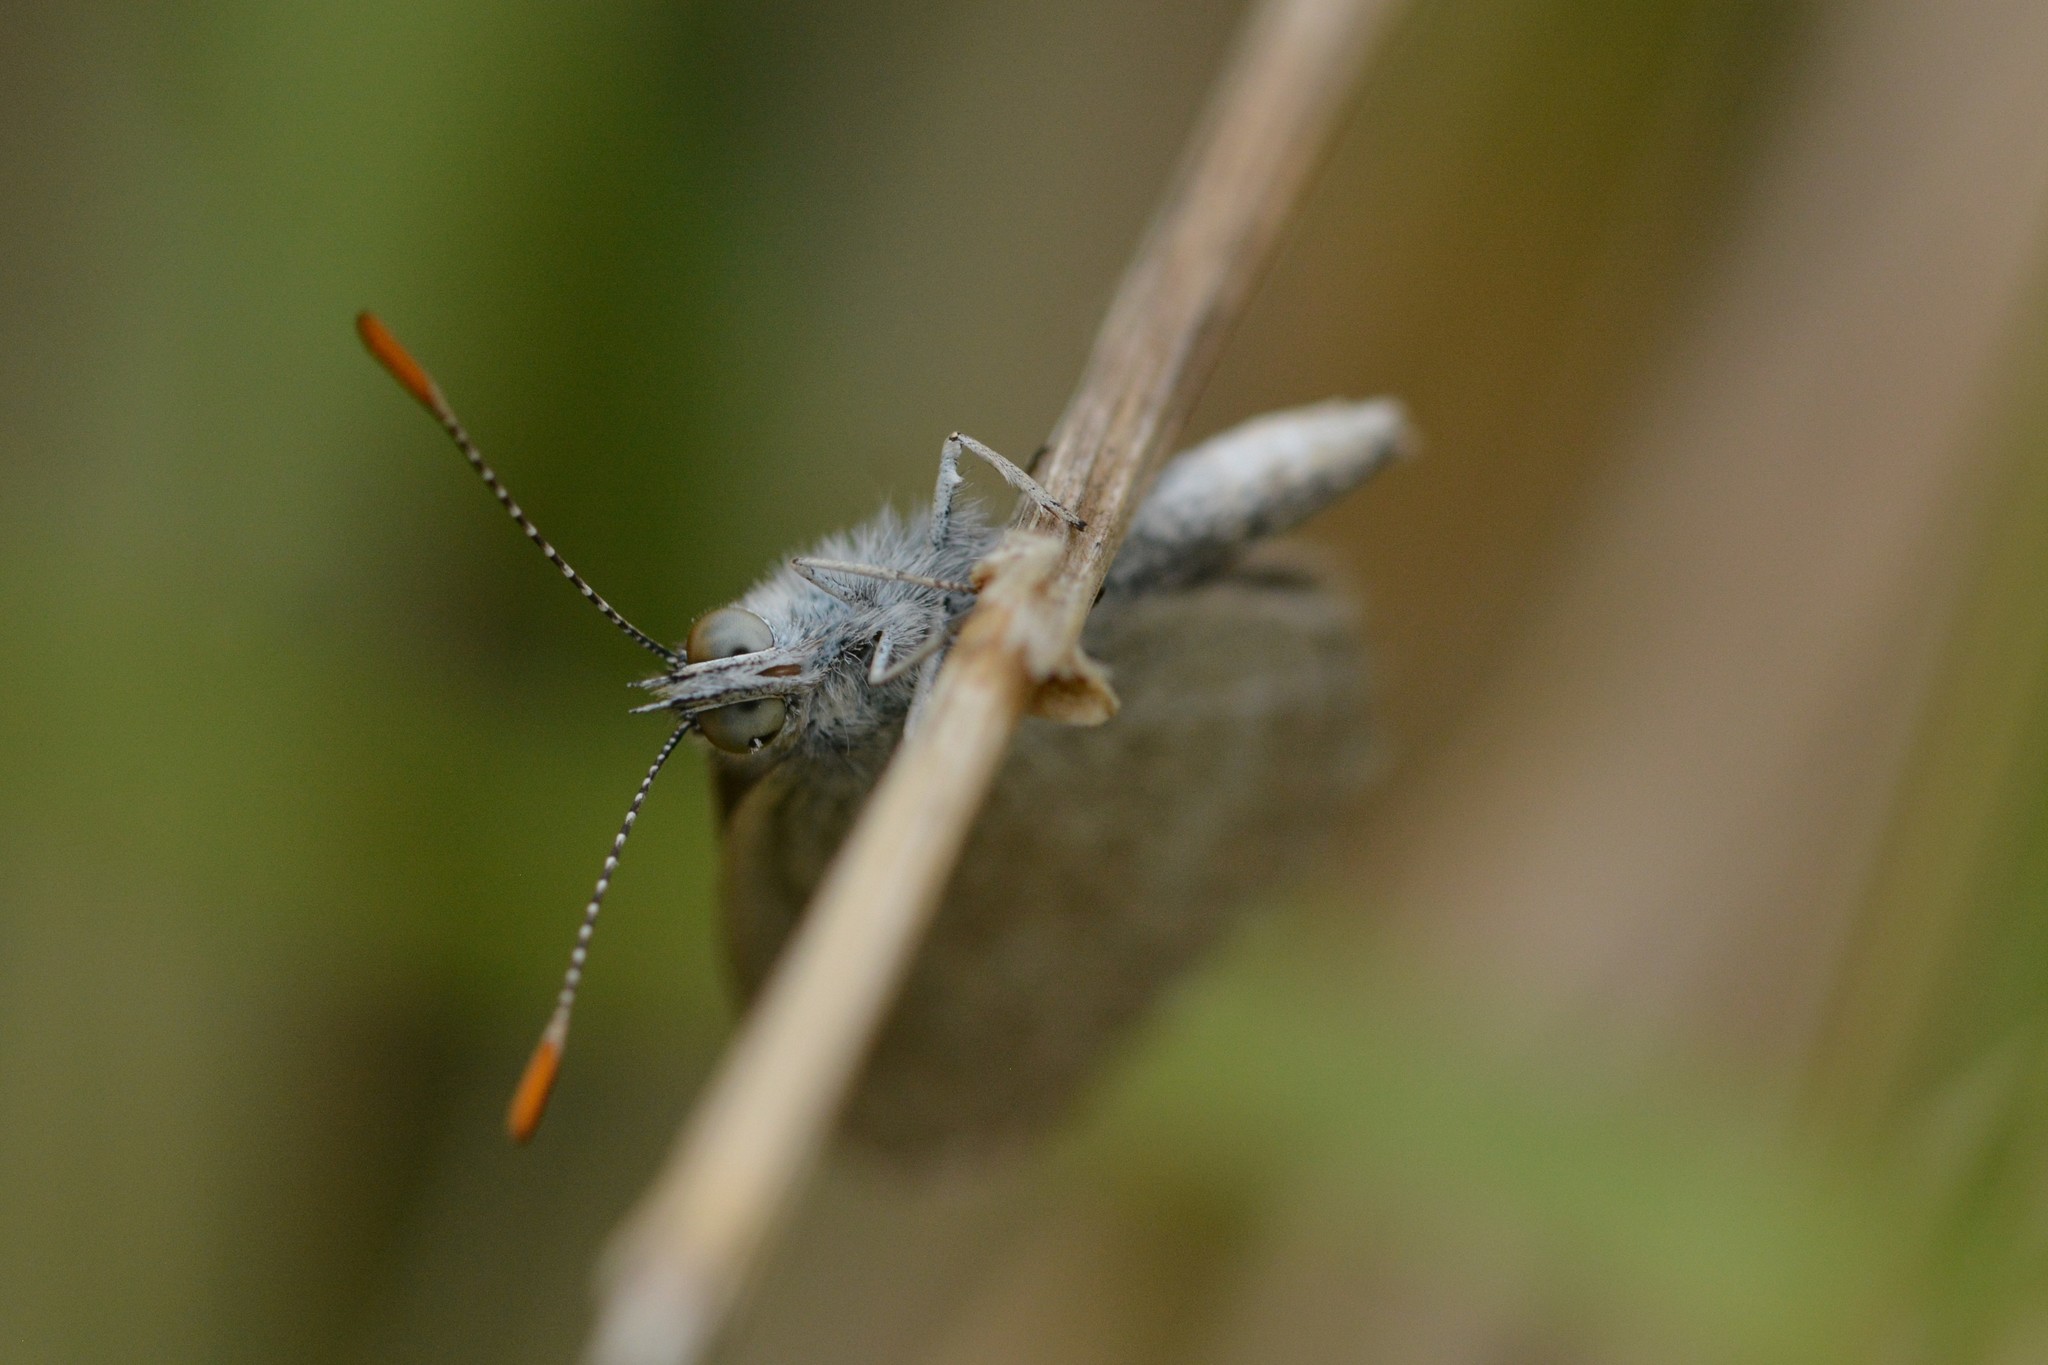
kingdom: Animalia
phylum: Arthropoda
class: Insecta
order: Lepidoptera
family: Lycaenidae
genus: Zizina
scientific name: Zizina otis
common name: Lesser grass blue
